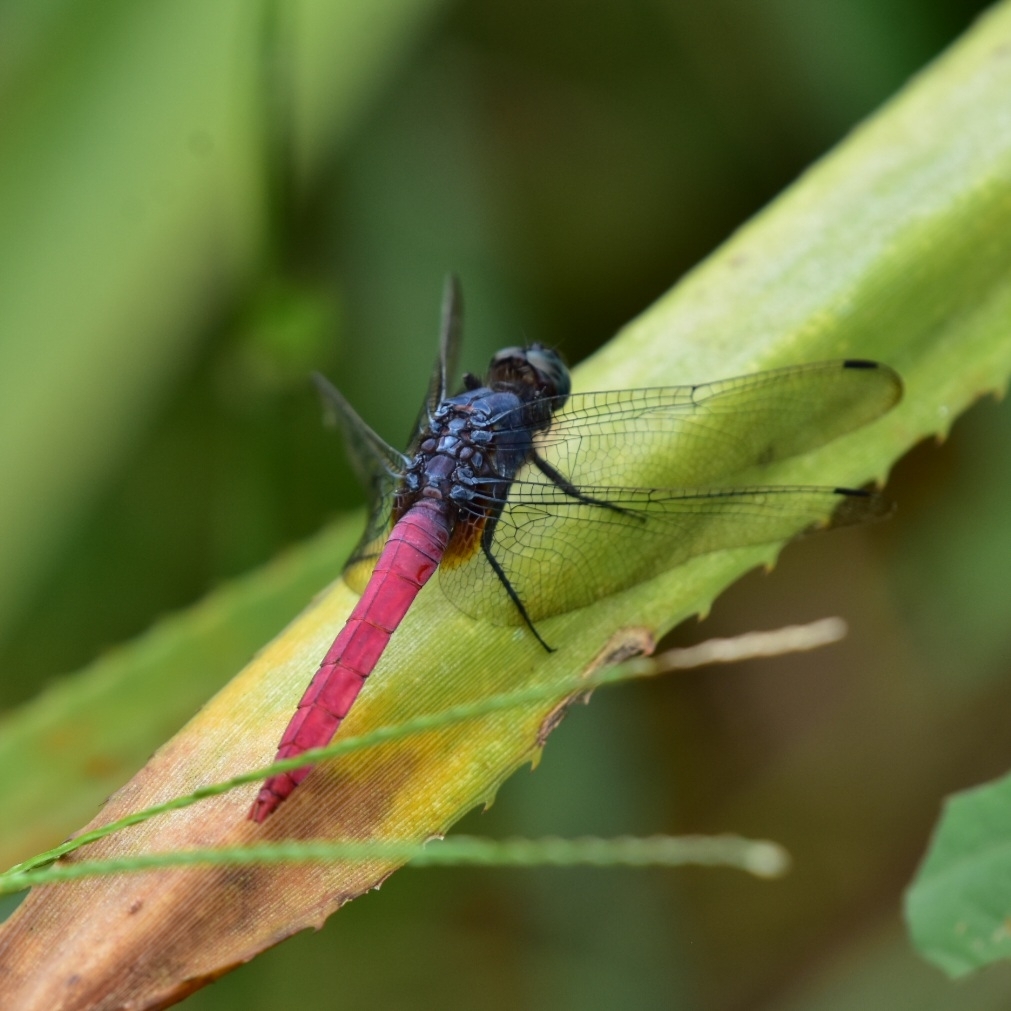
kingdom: Animalia
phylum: Arthropoda
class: Insecta
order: Odonata
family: Libellulidae
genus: Orthetrum
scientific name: Orthetrum pruinosum
